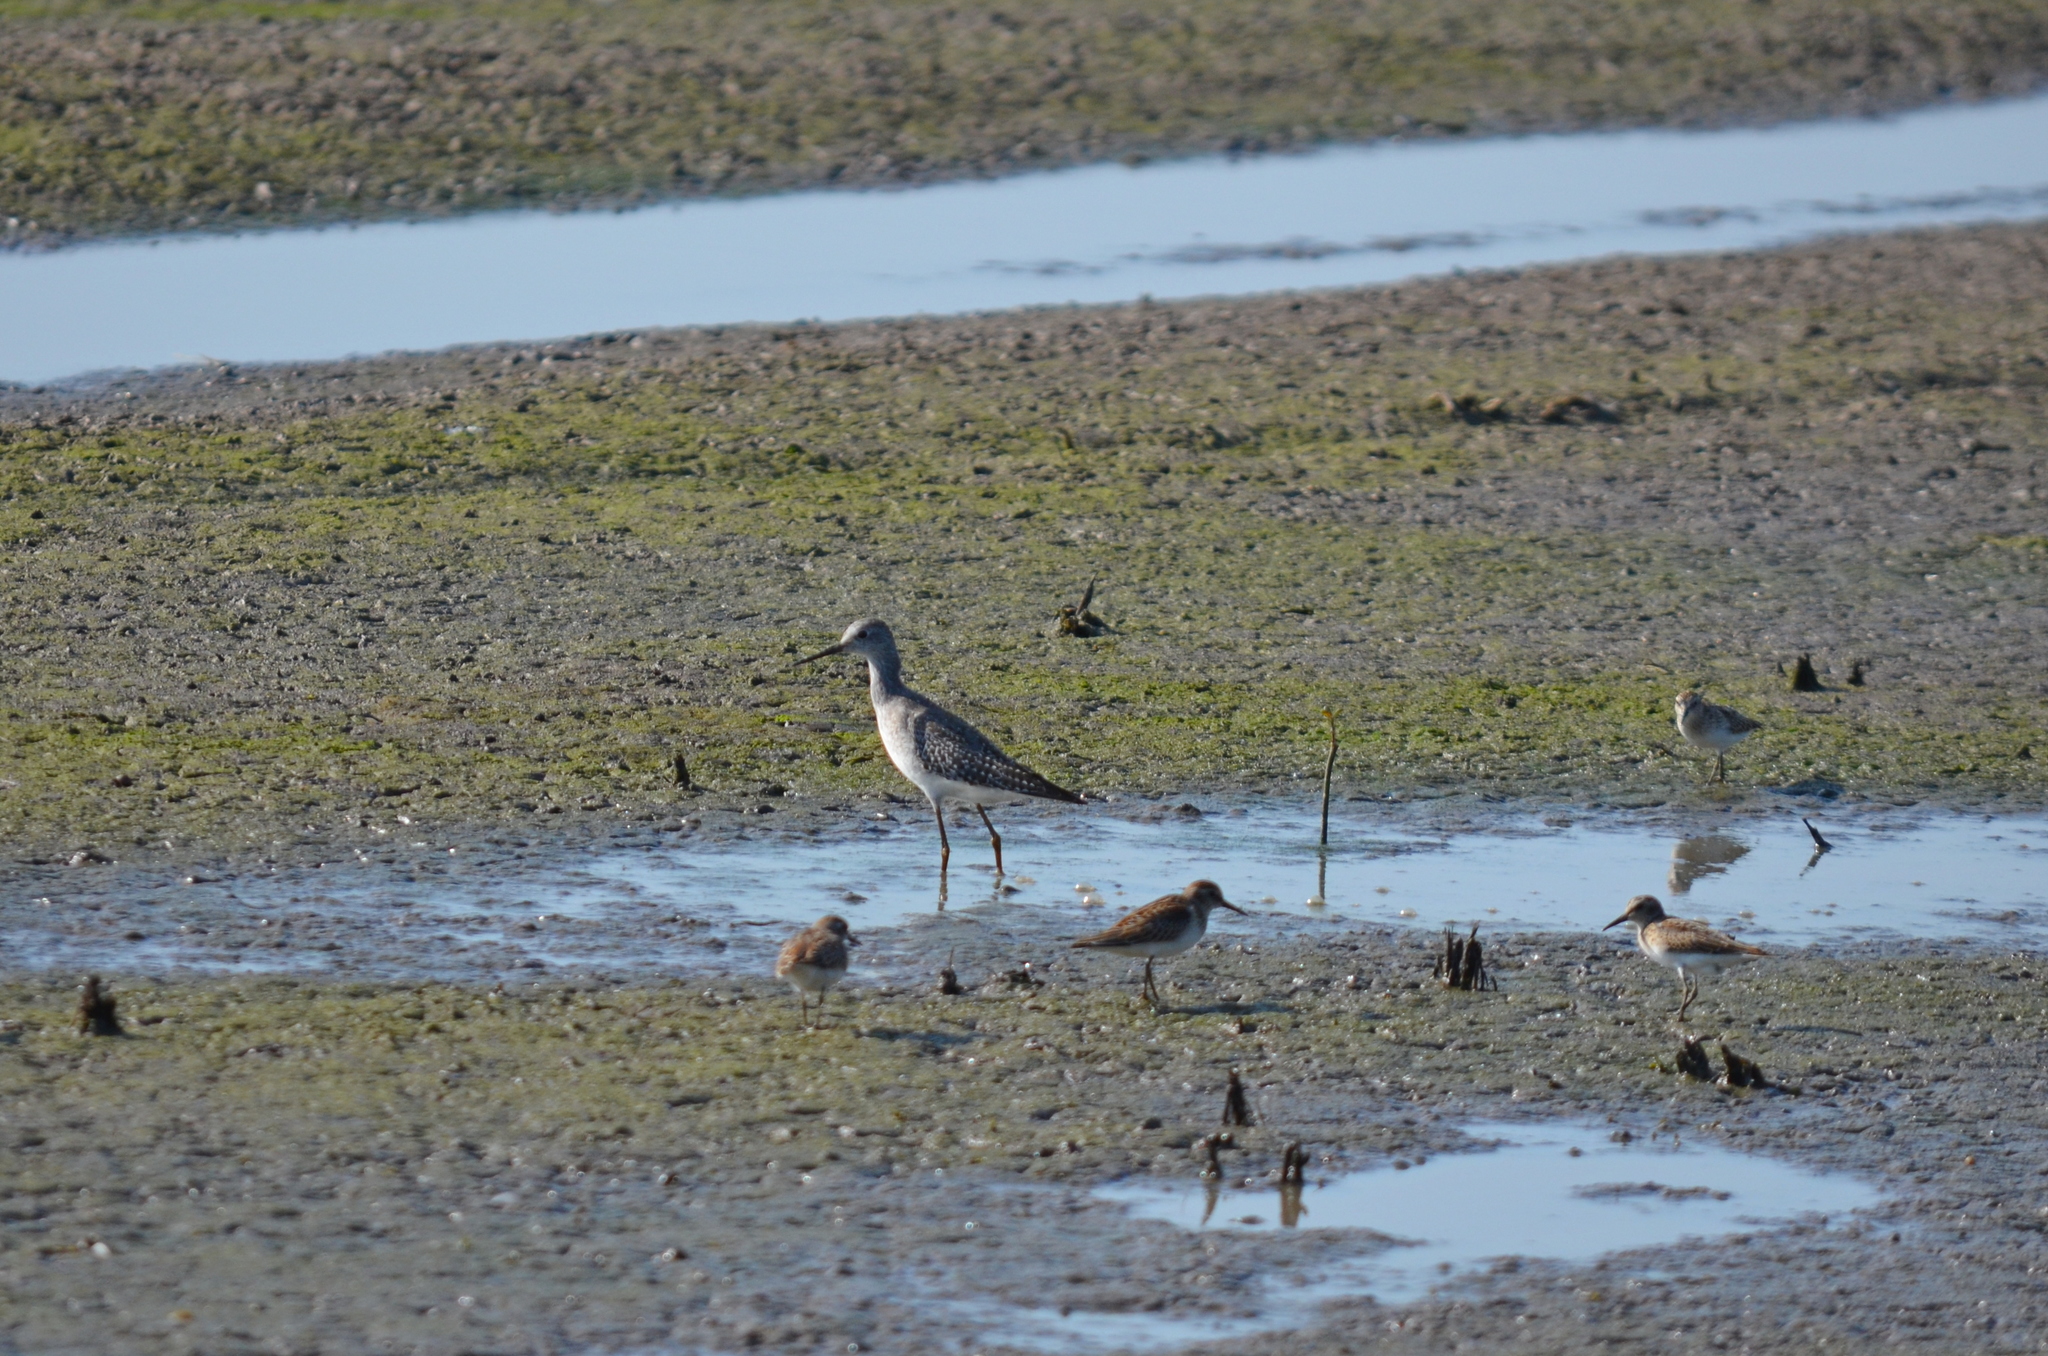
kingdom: Animalia
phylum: Chordata
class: Aves
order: Charadriiformes
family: Scolopacidae
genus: Tringa
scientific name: Tringa flavipes
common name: Lesser yellowlegs
